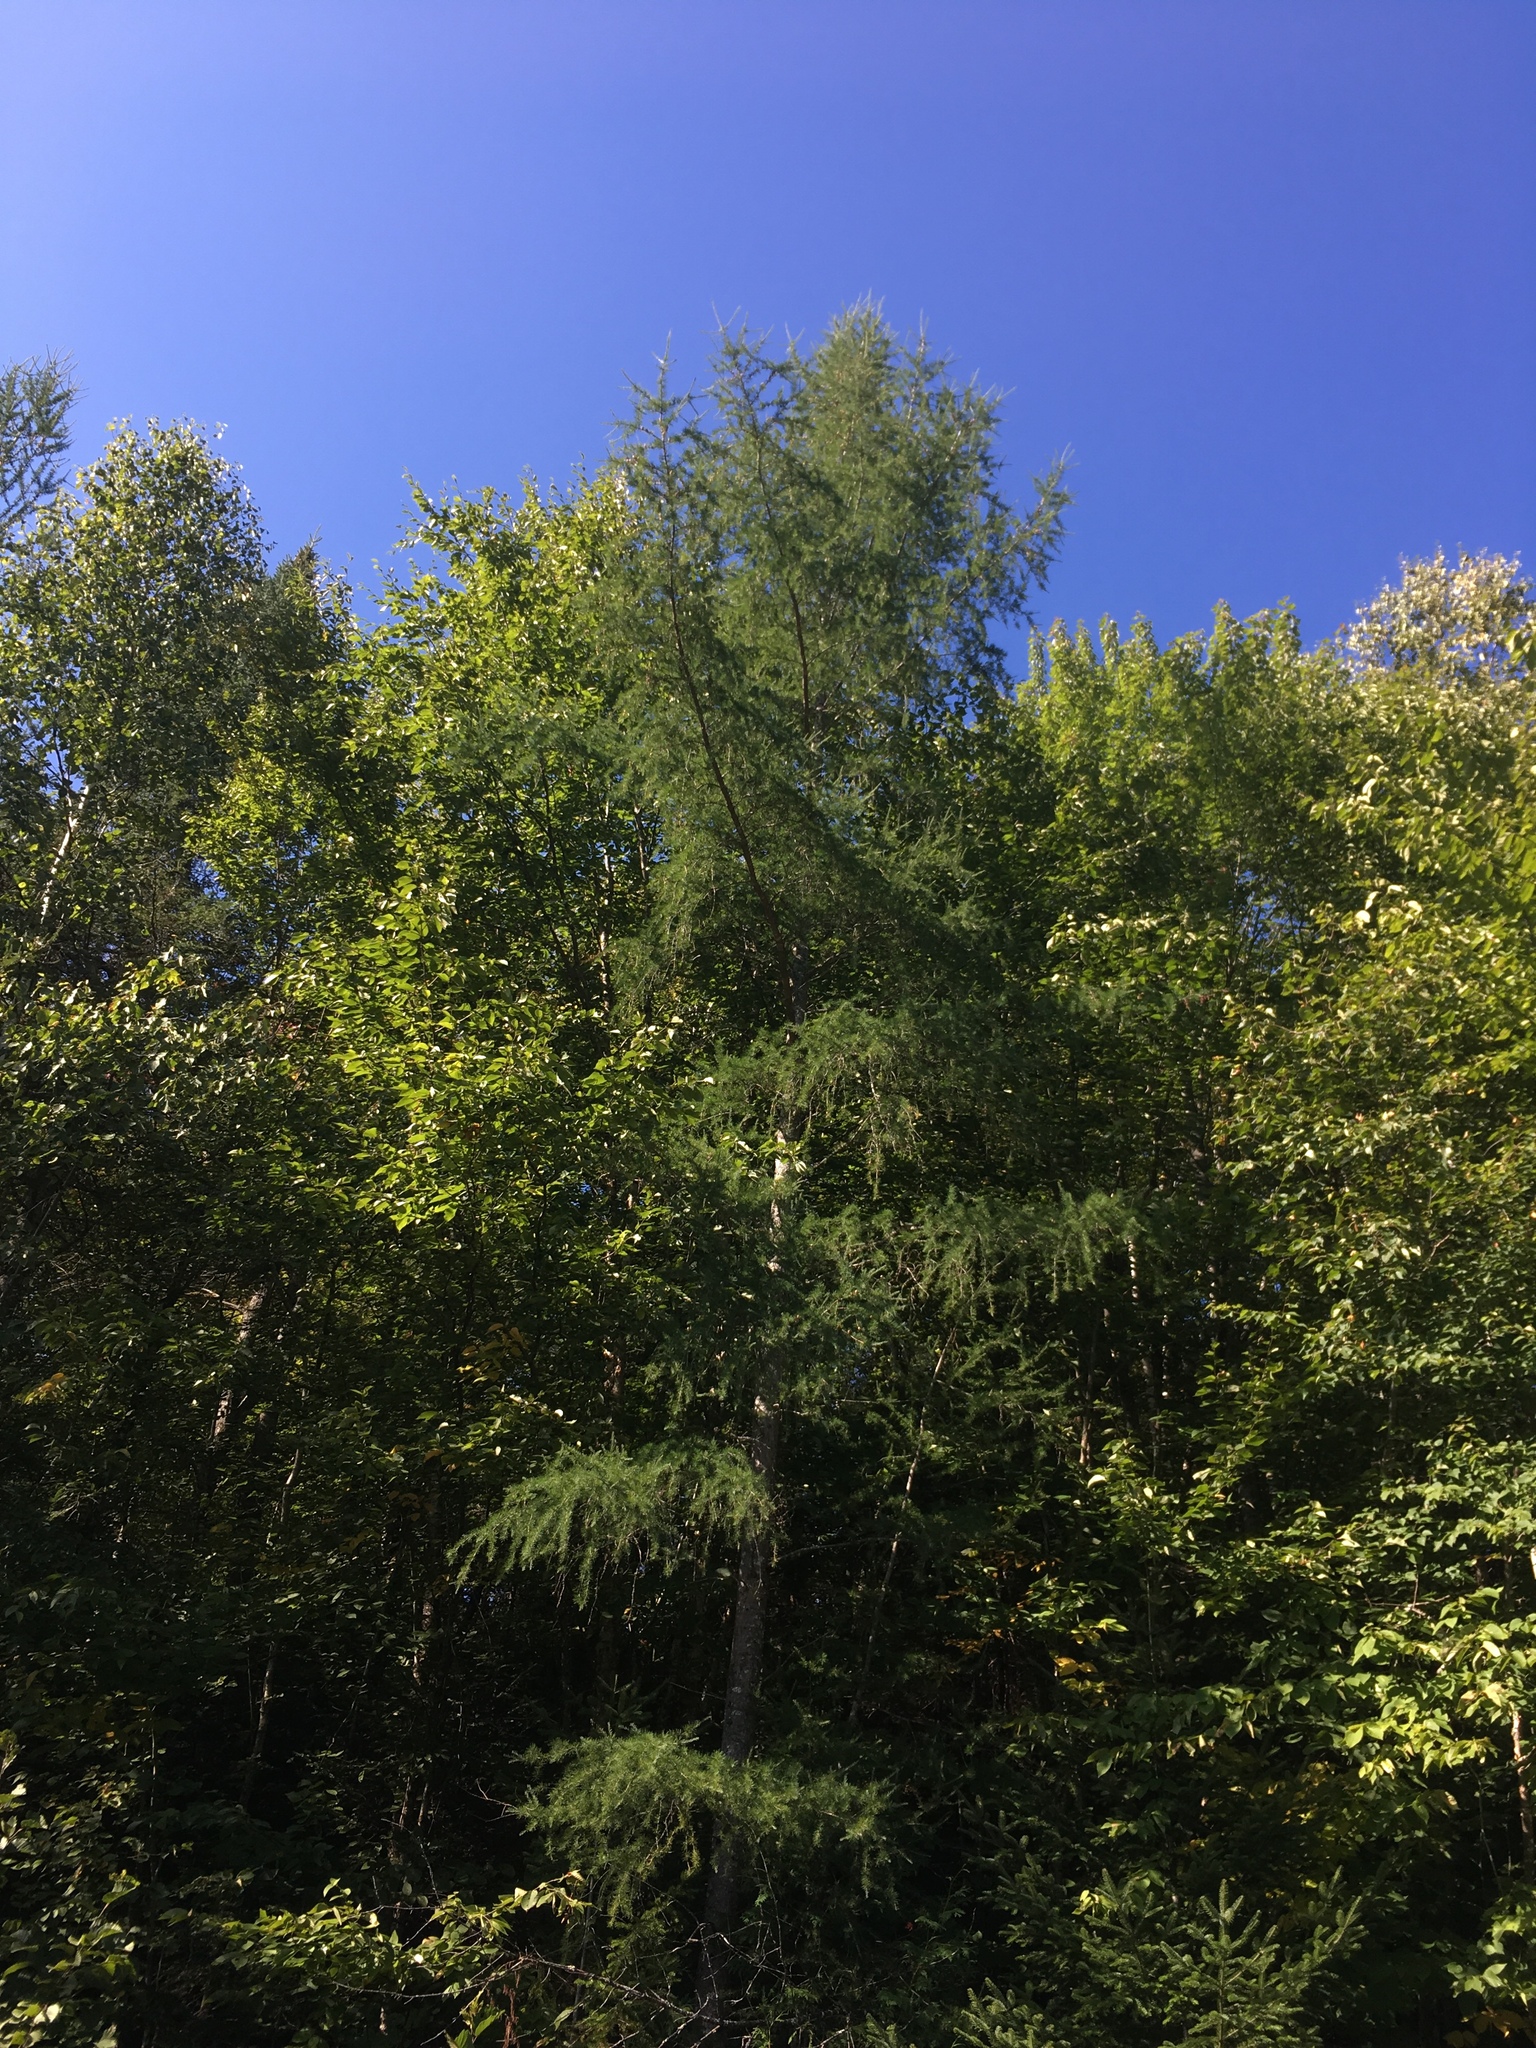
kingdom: Plantae
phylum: Tracheophyta
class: Pinopsida
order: Pinales
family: Pinaceae
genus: Larix
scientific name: Larix laricina
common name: American larch
